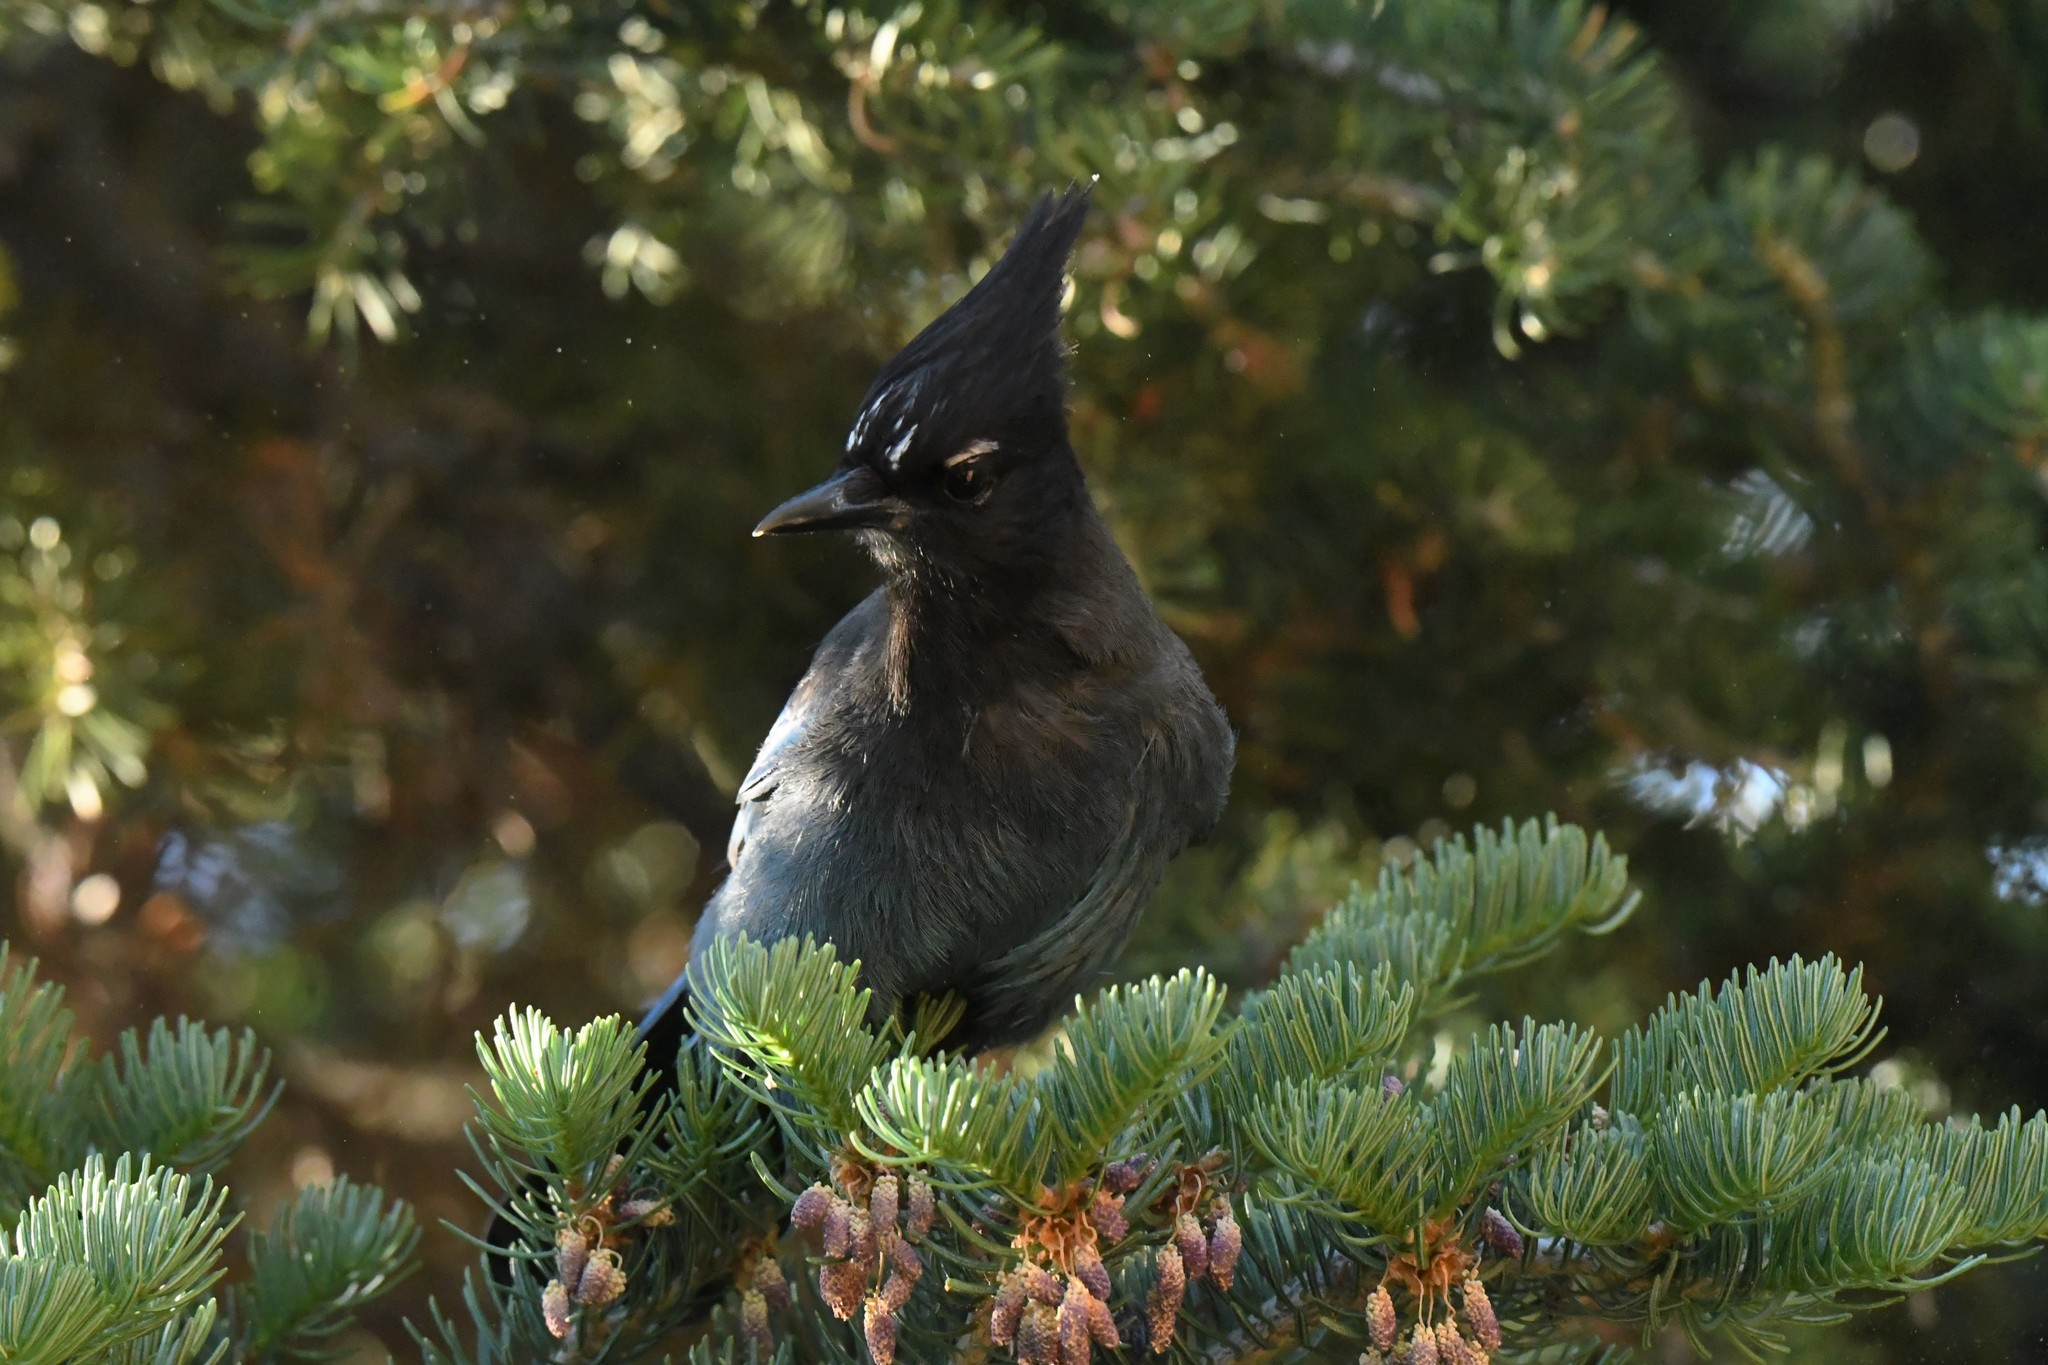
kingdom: Animalia
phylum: Chordata
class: Aves
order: Passeriformes
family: Corvidae
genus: Cyanocitta
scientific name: Cyanocitta stelleri
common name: Steller's jay
